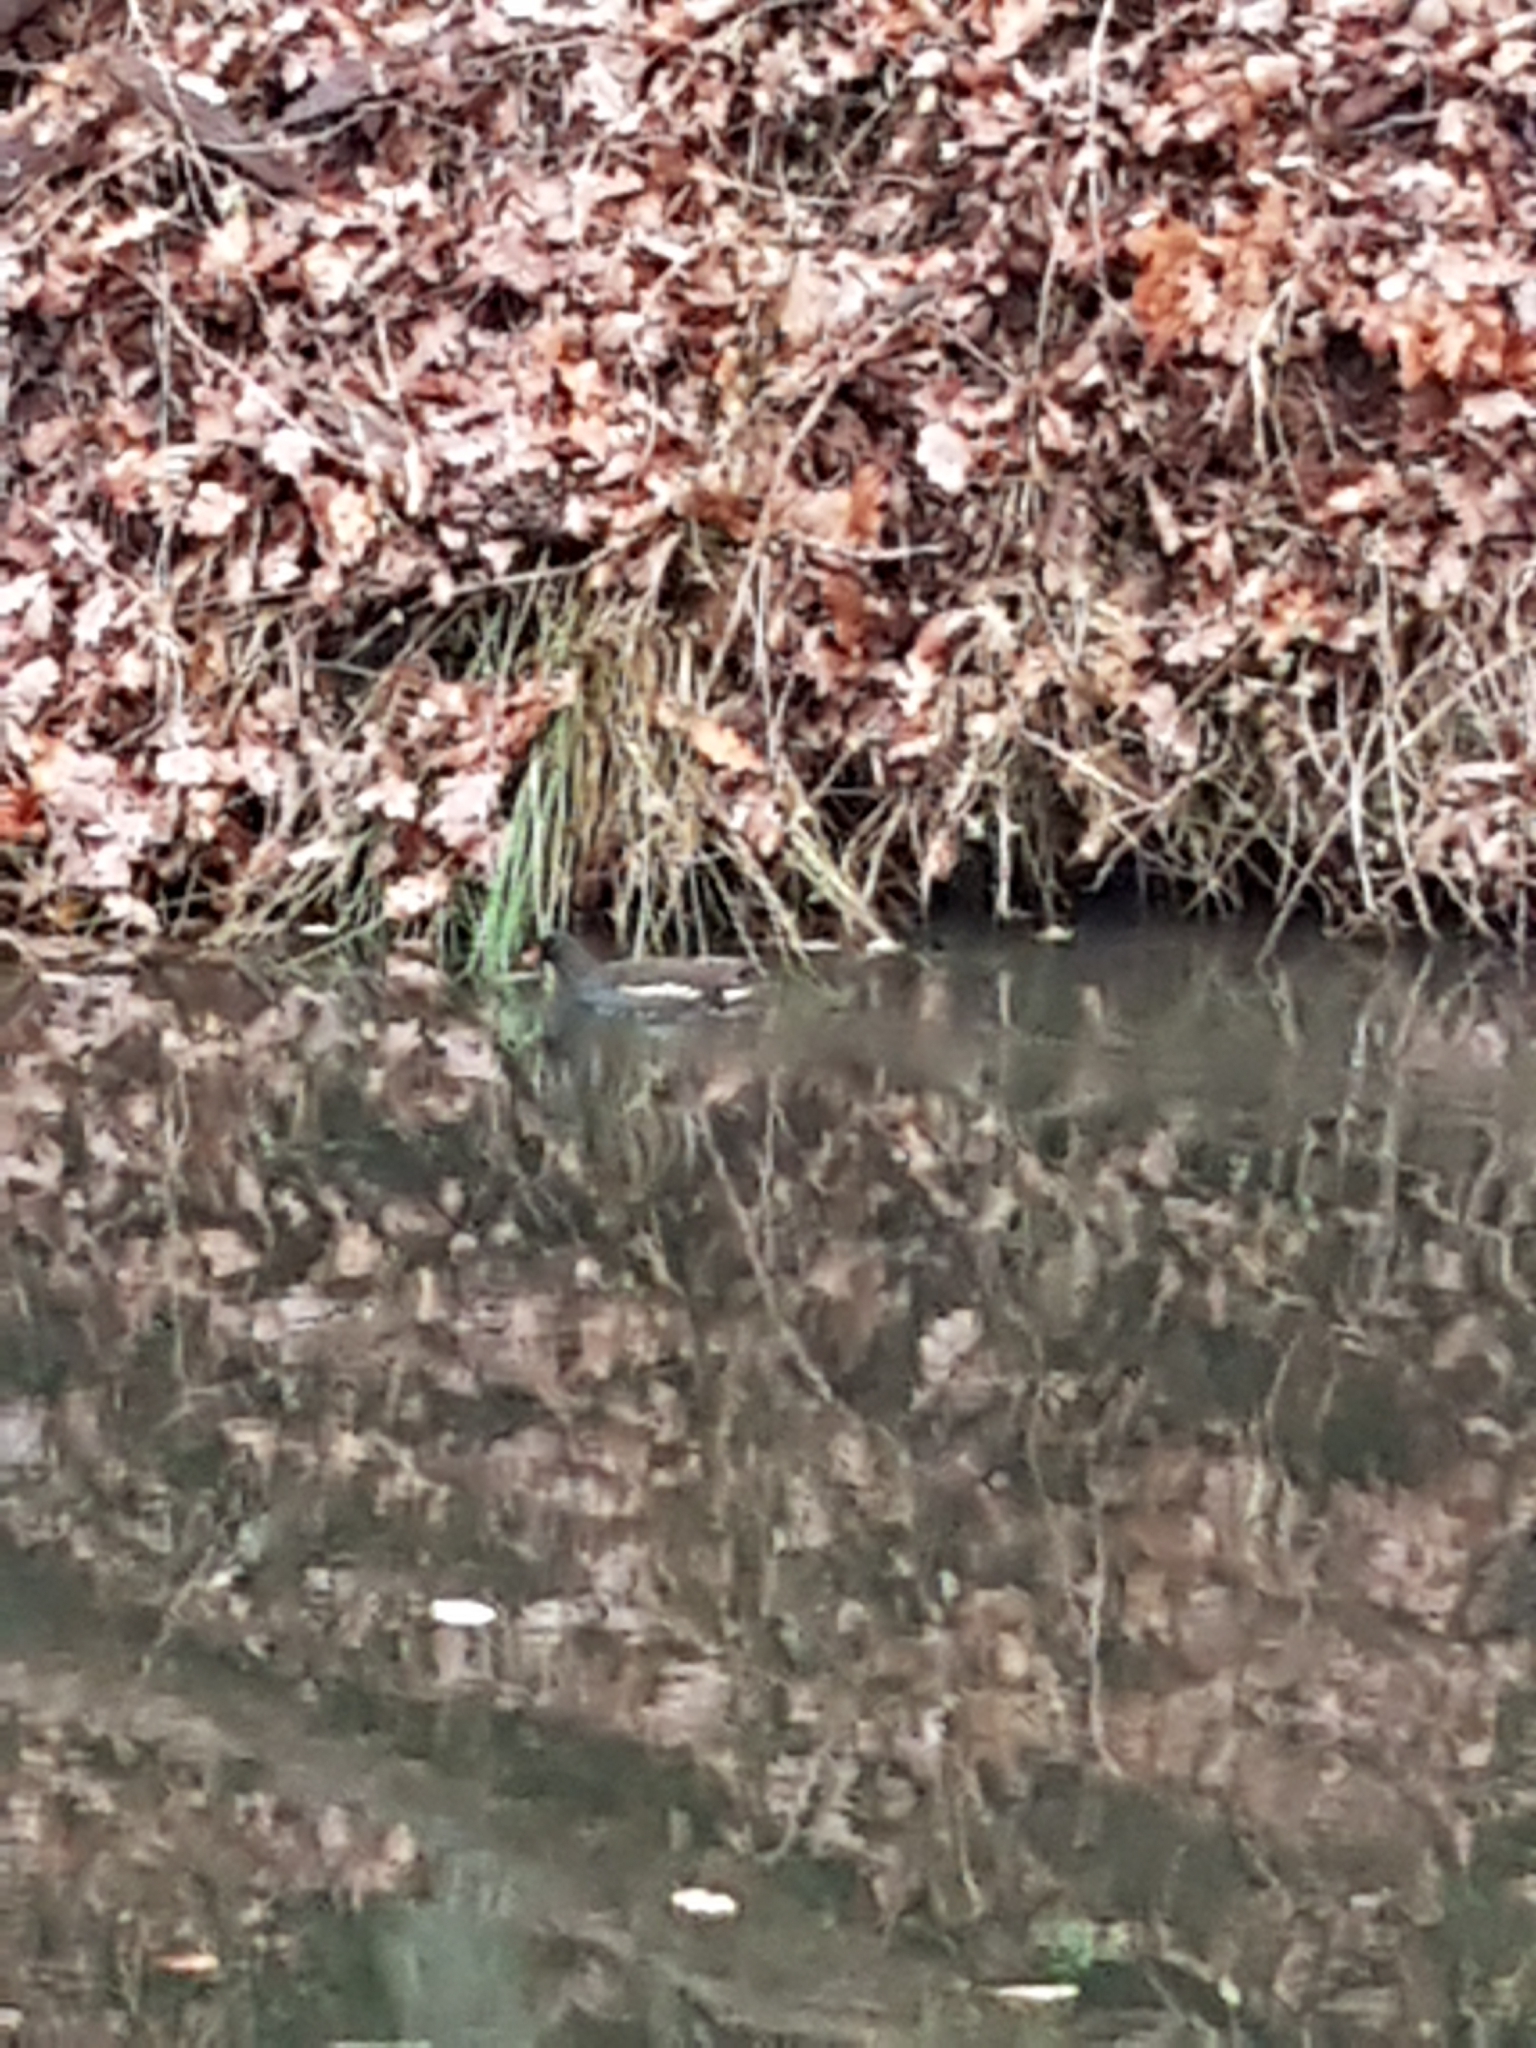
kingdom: Animalia
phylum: Chordata
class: Aves
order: Gruiformes
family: Rallidae
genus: Gallinula
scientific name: Gallinula chloropus
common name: Common moorhen
